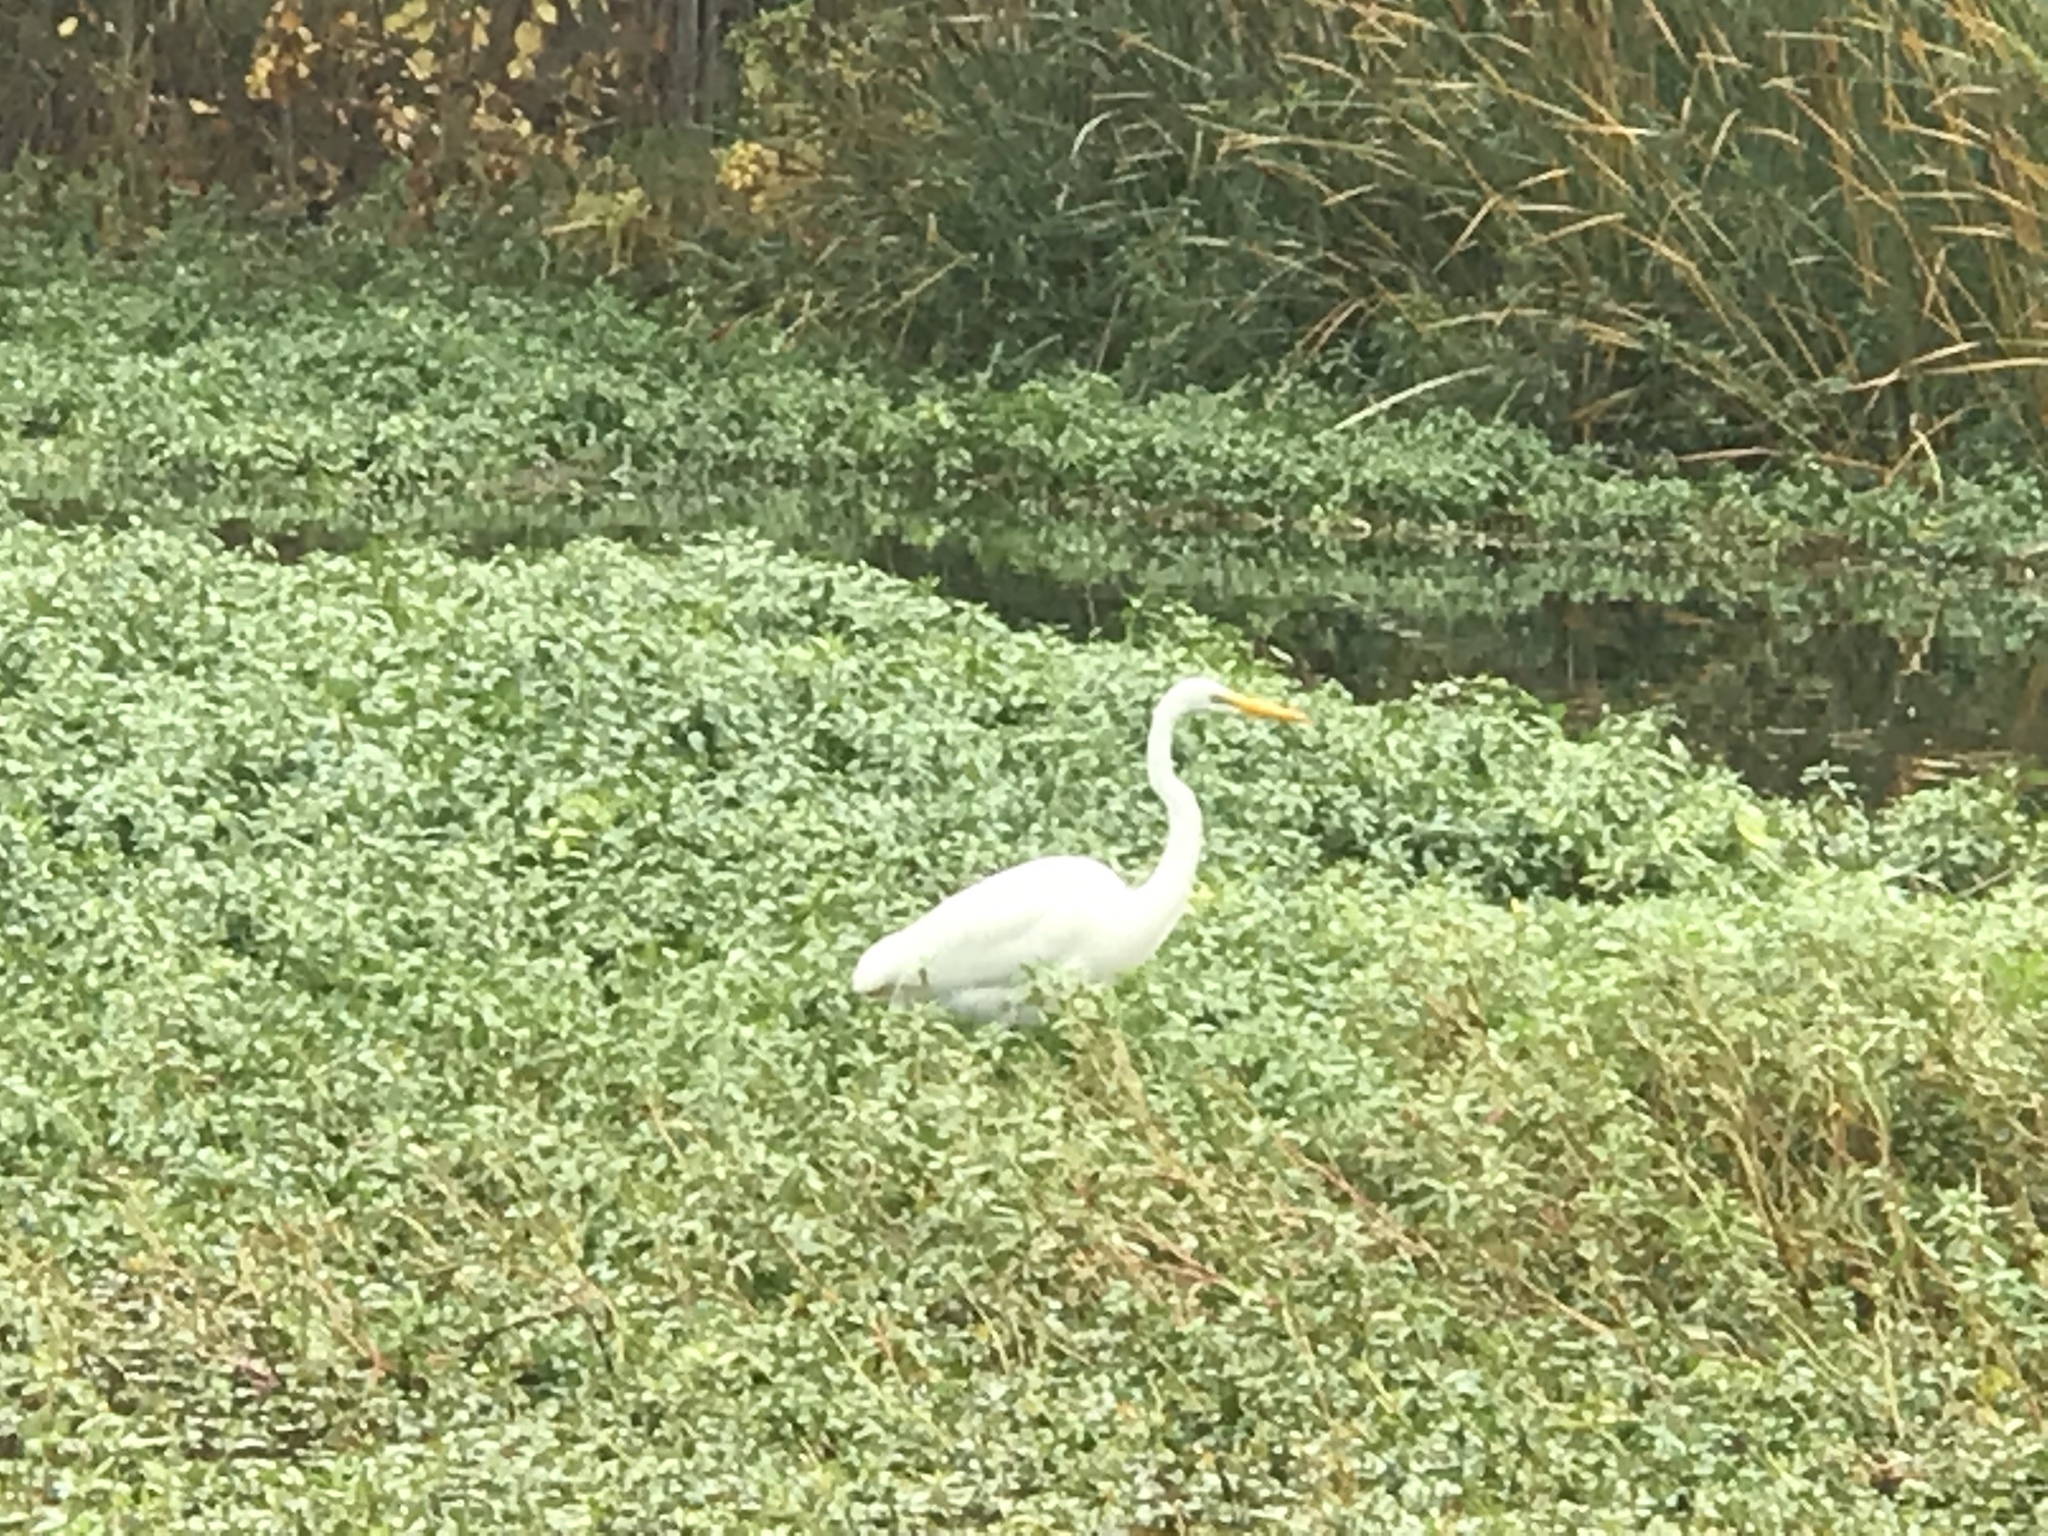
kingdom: Animalia
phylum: Chordata
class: Aves
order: Pelecaniformes
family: Ardeidae
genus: Ardea
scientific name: Ardea alba
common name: Great egret
